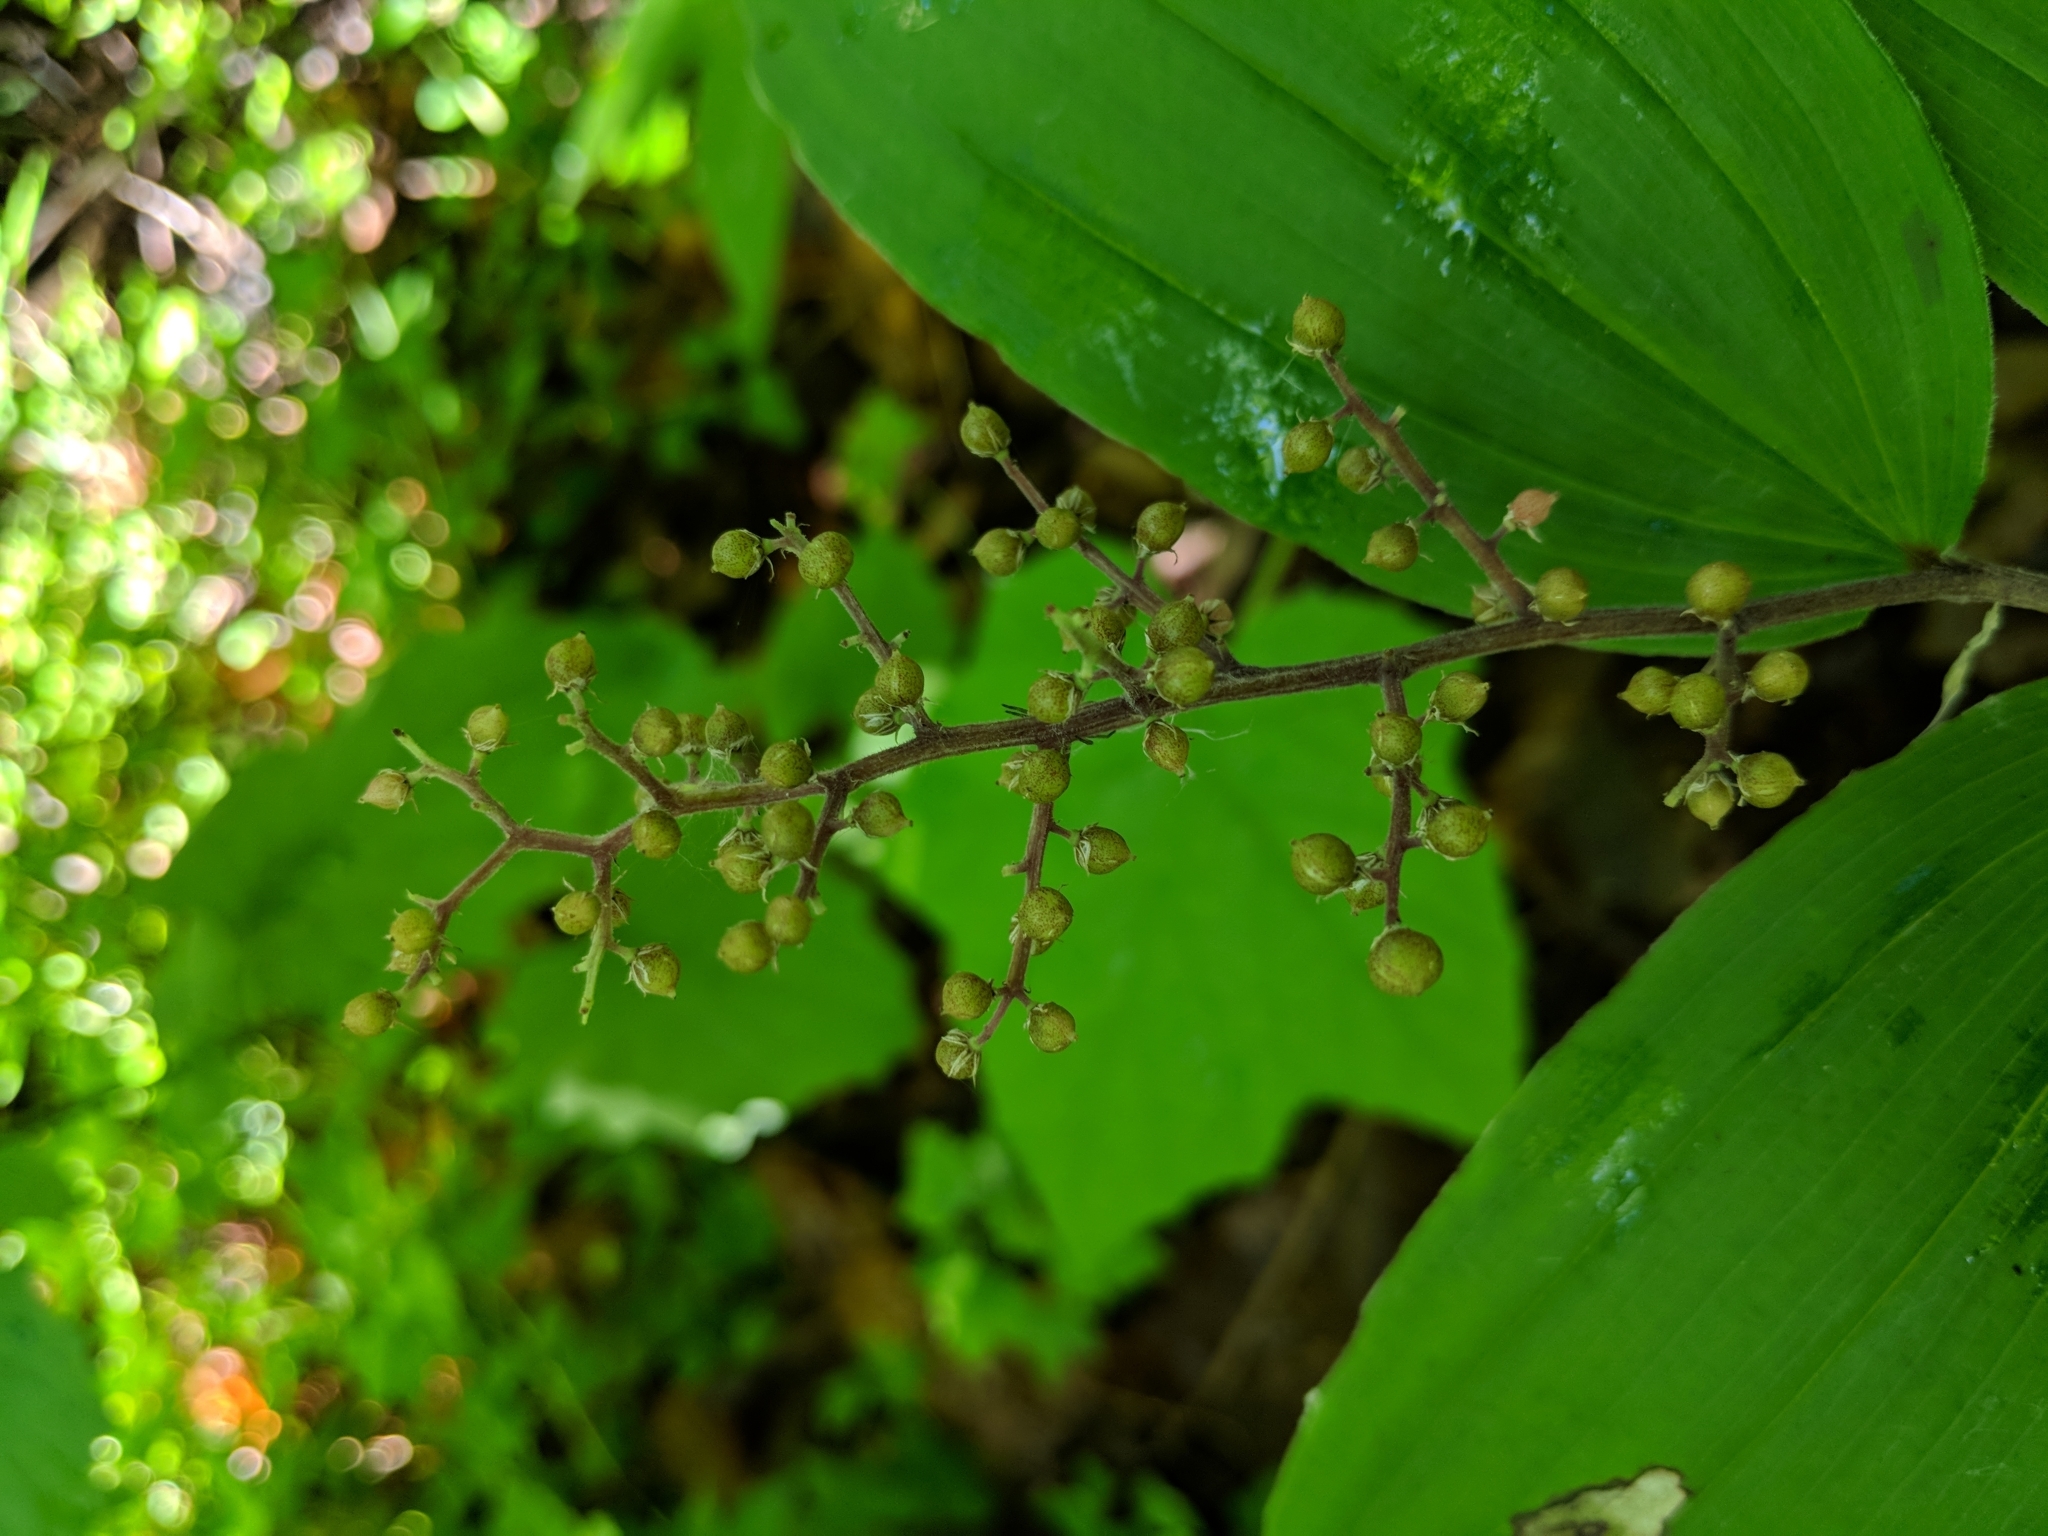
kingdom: Plantae
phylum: Tracheophyta
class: Liliopsida
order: Asparagales
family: Asparagaceae
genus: Maianthemum
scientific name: Maianthemum racemosum
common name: False spikenard
